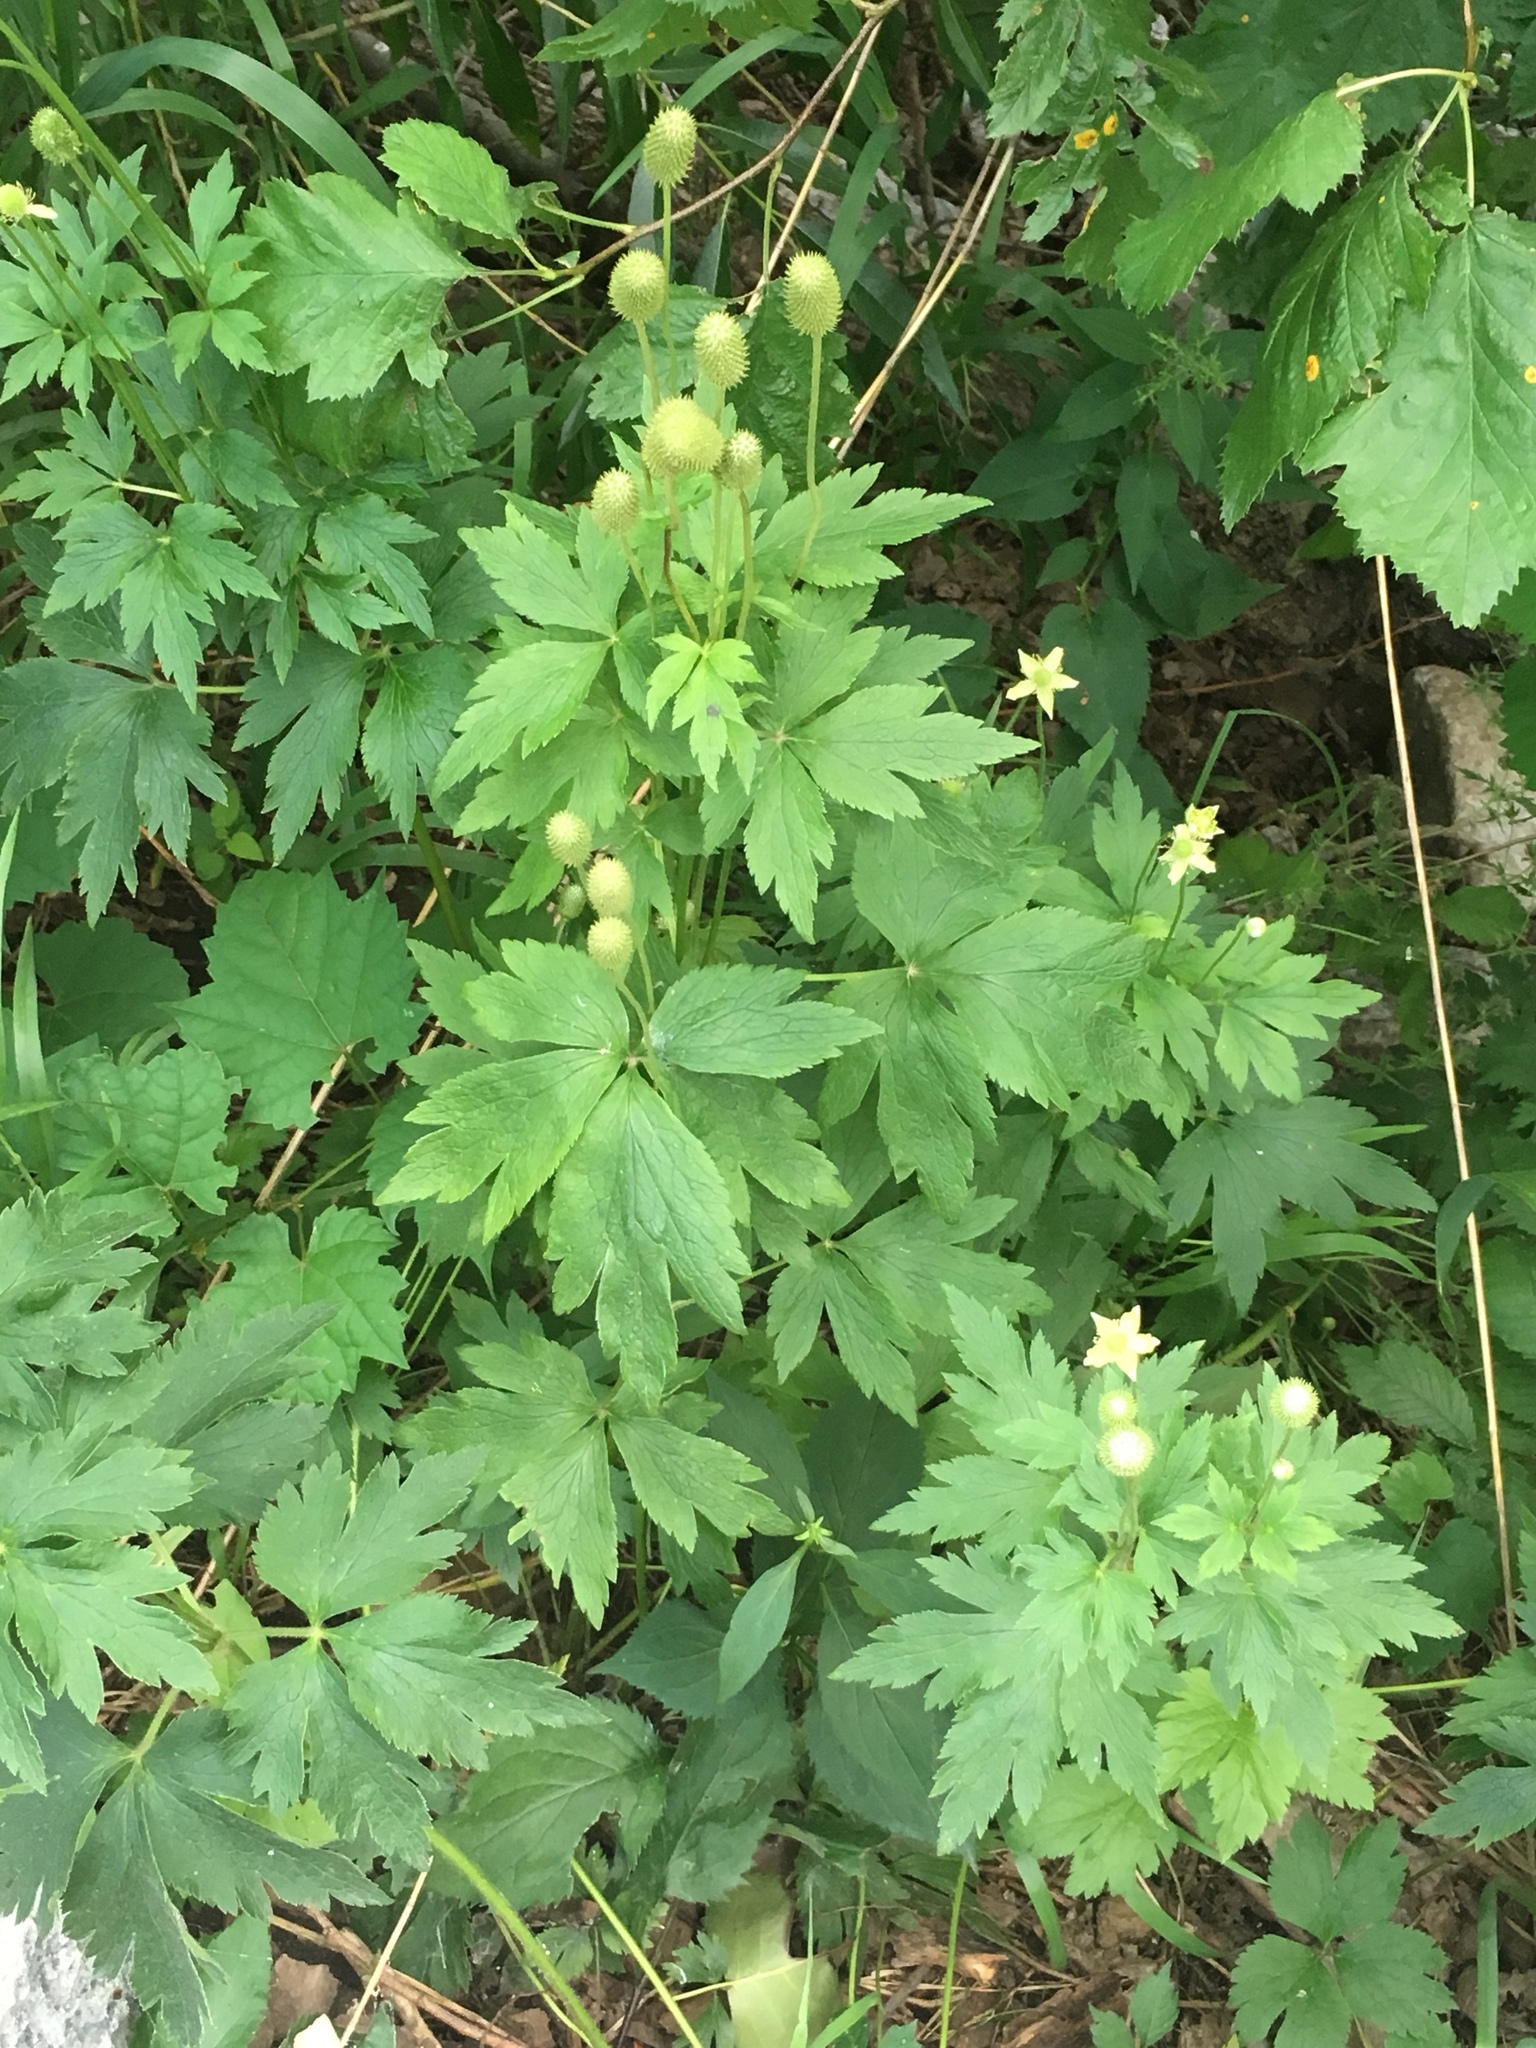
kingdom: Plantae
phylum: Tracheophyta
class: Magnoliopsida
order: Ranunculales
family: Ranunculaceae
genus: Anemone
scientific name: Anemone virginiana
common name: Tall anemone
